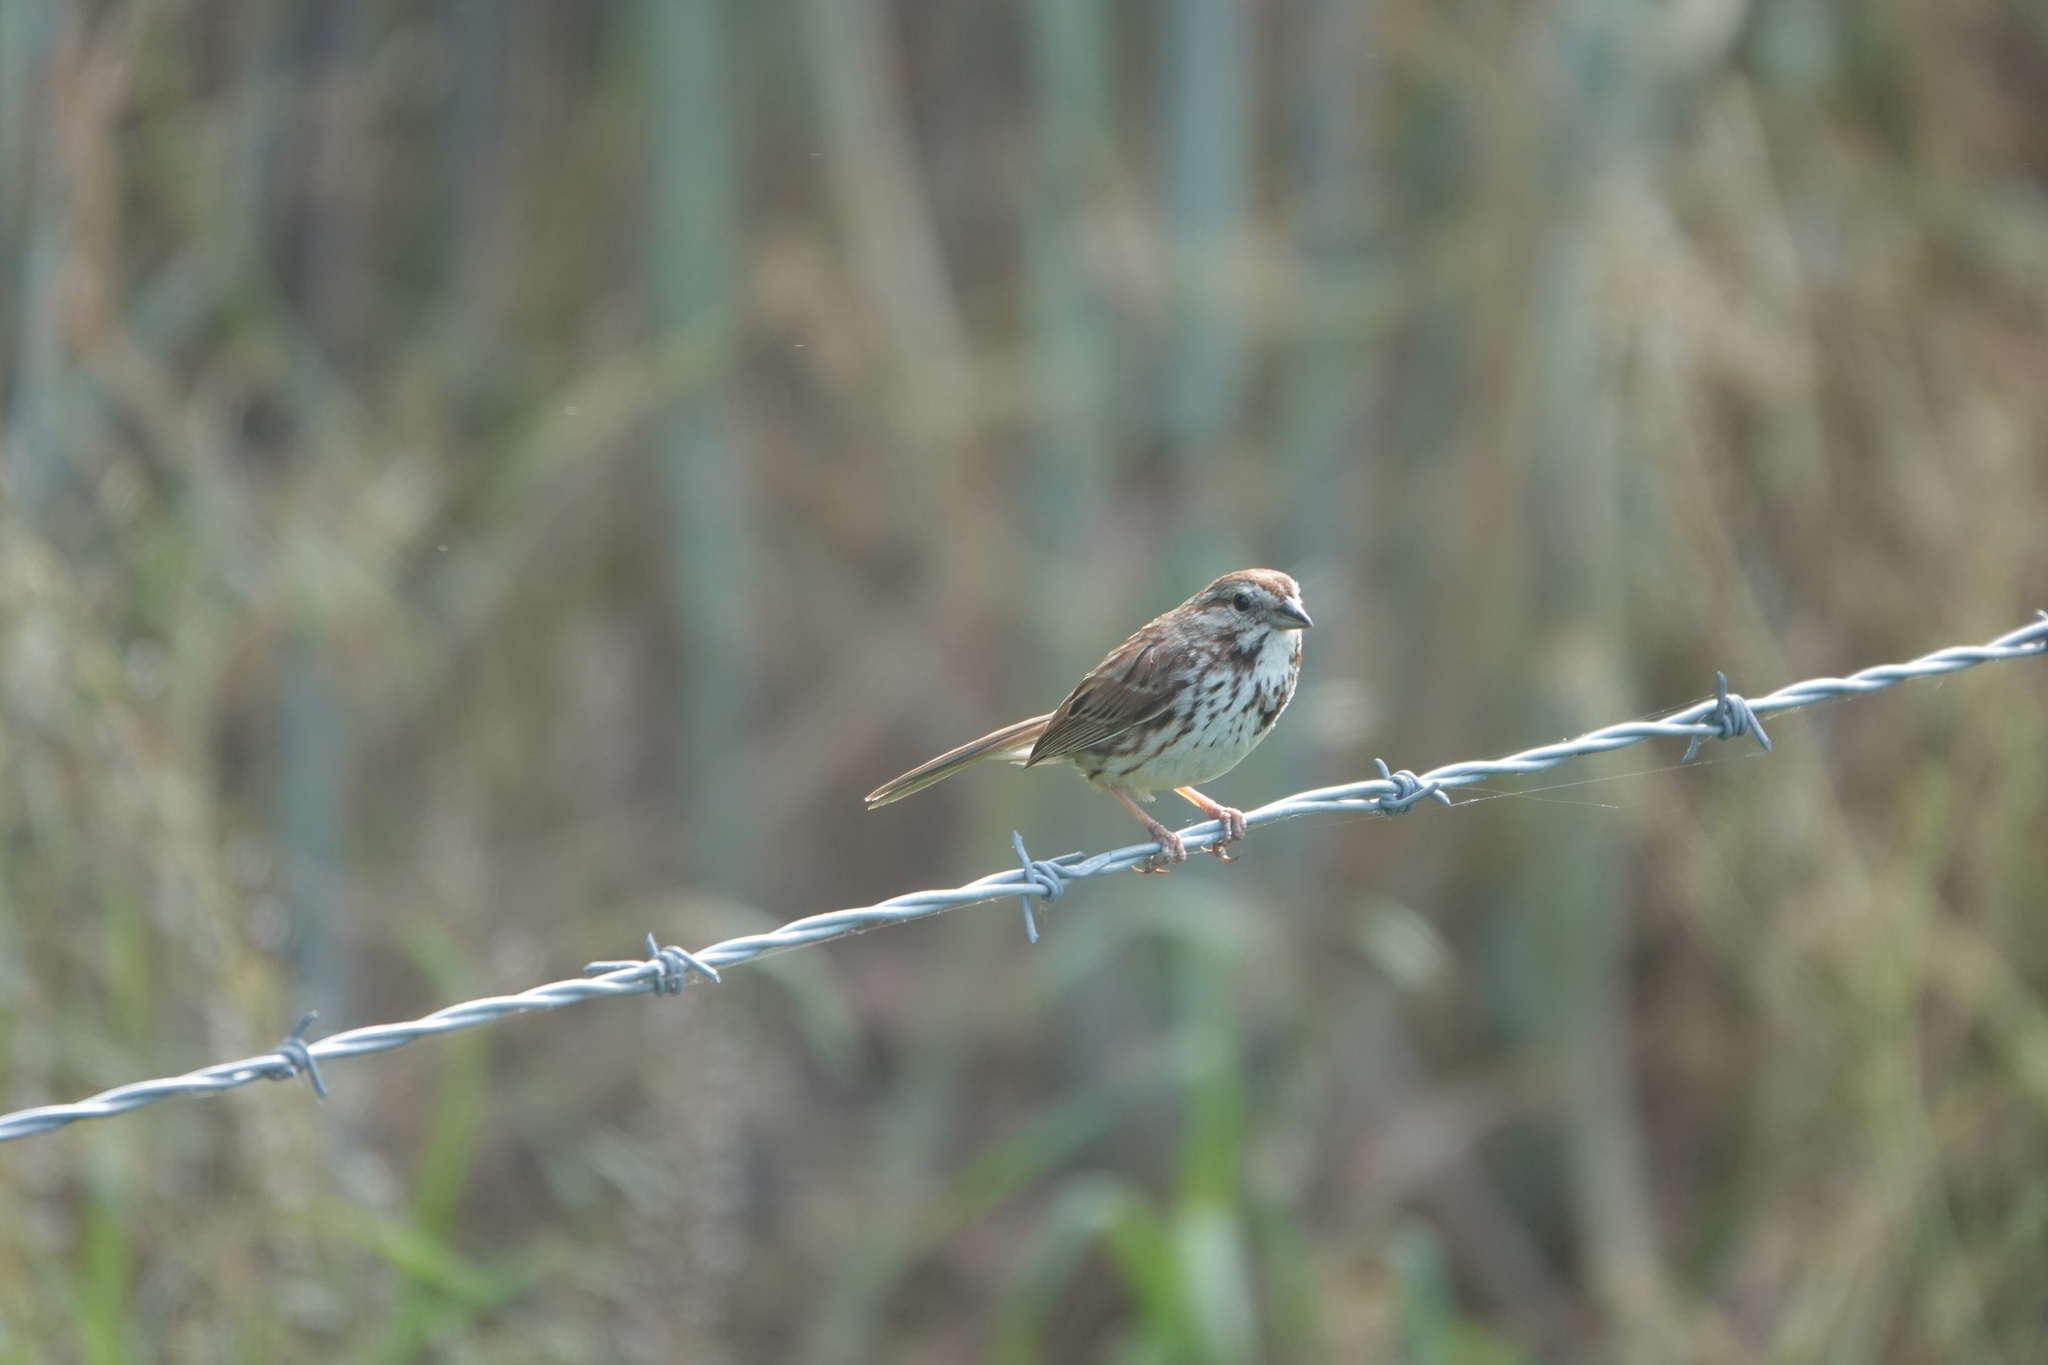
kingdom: Animalia
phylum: Chordata
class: Aves
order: Passeriformes
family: Passerellidae
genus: Melospiza
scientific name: Melospiza melodia
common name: Song sparrow
